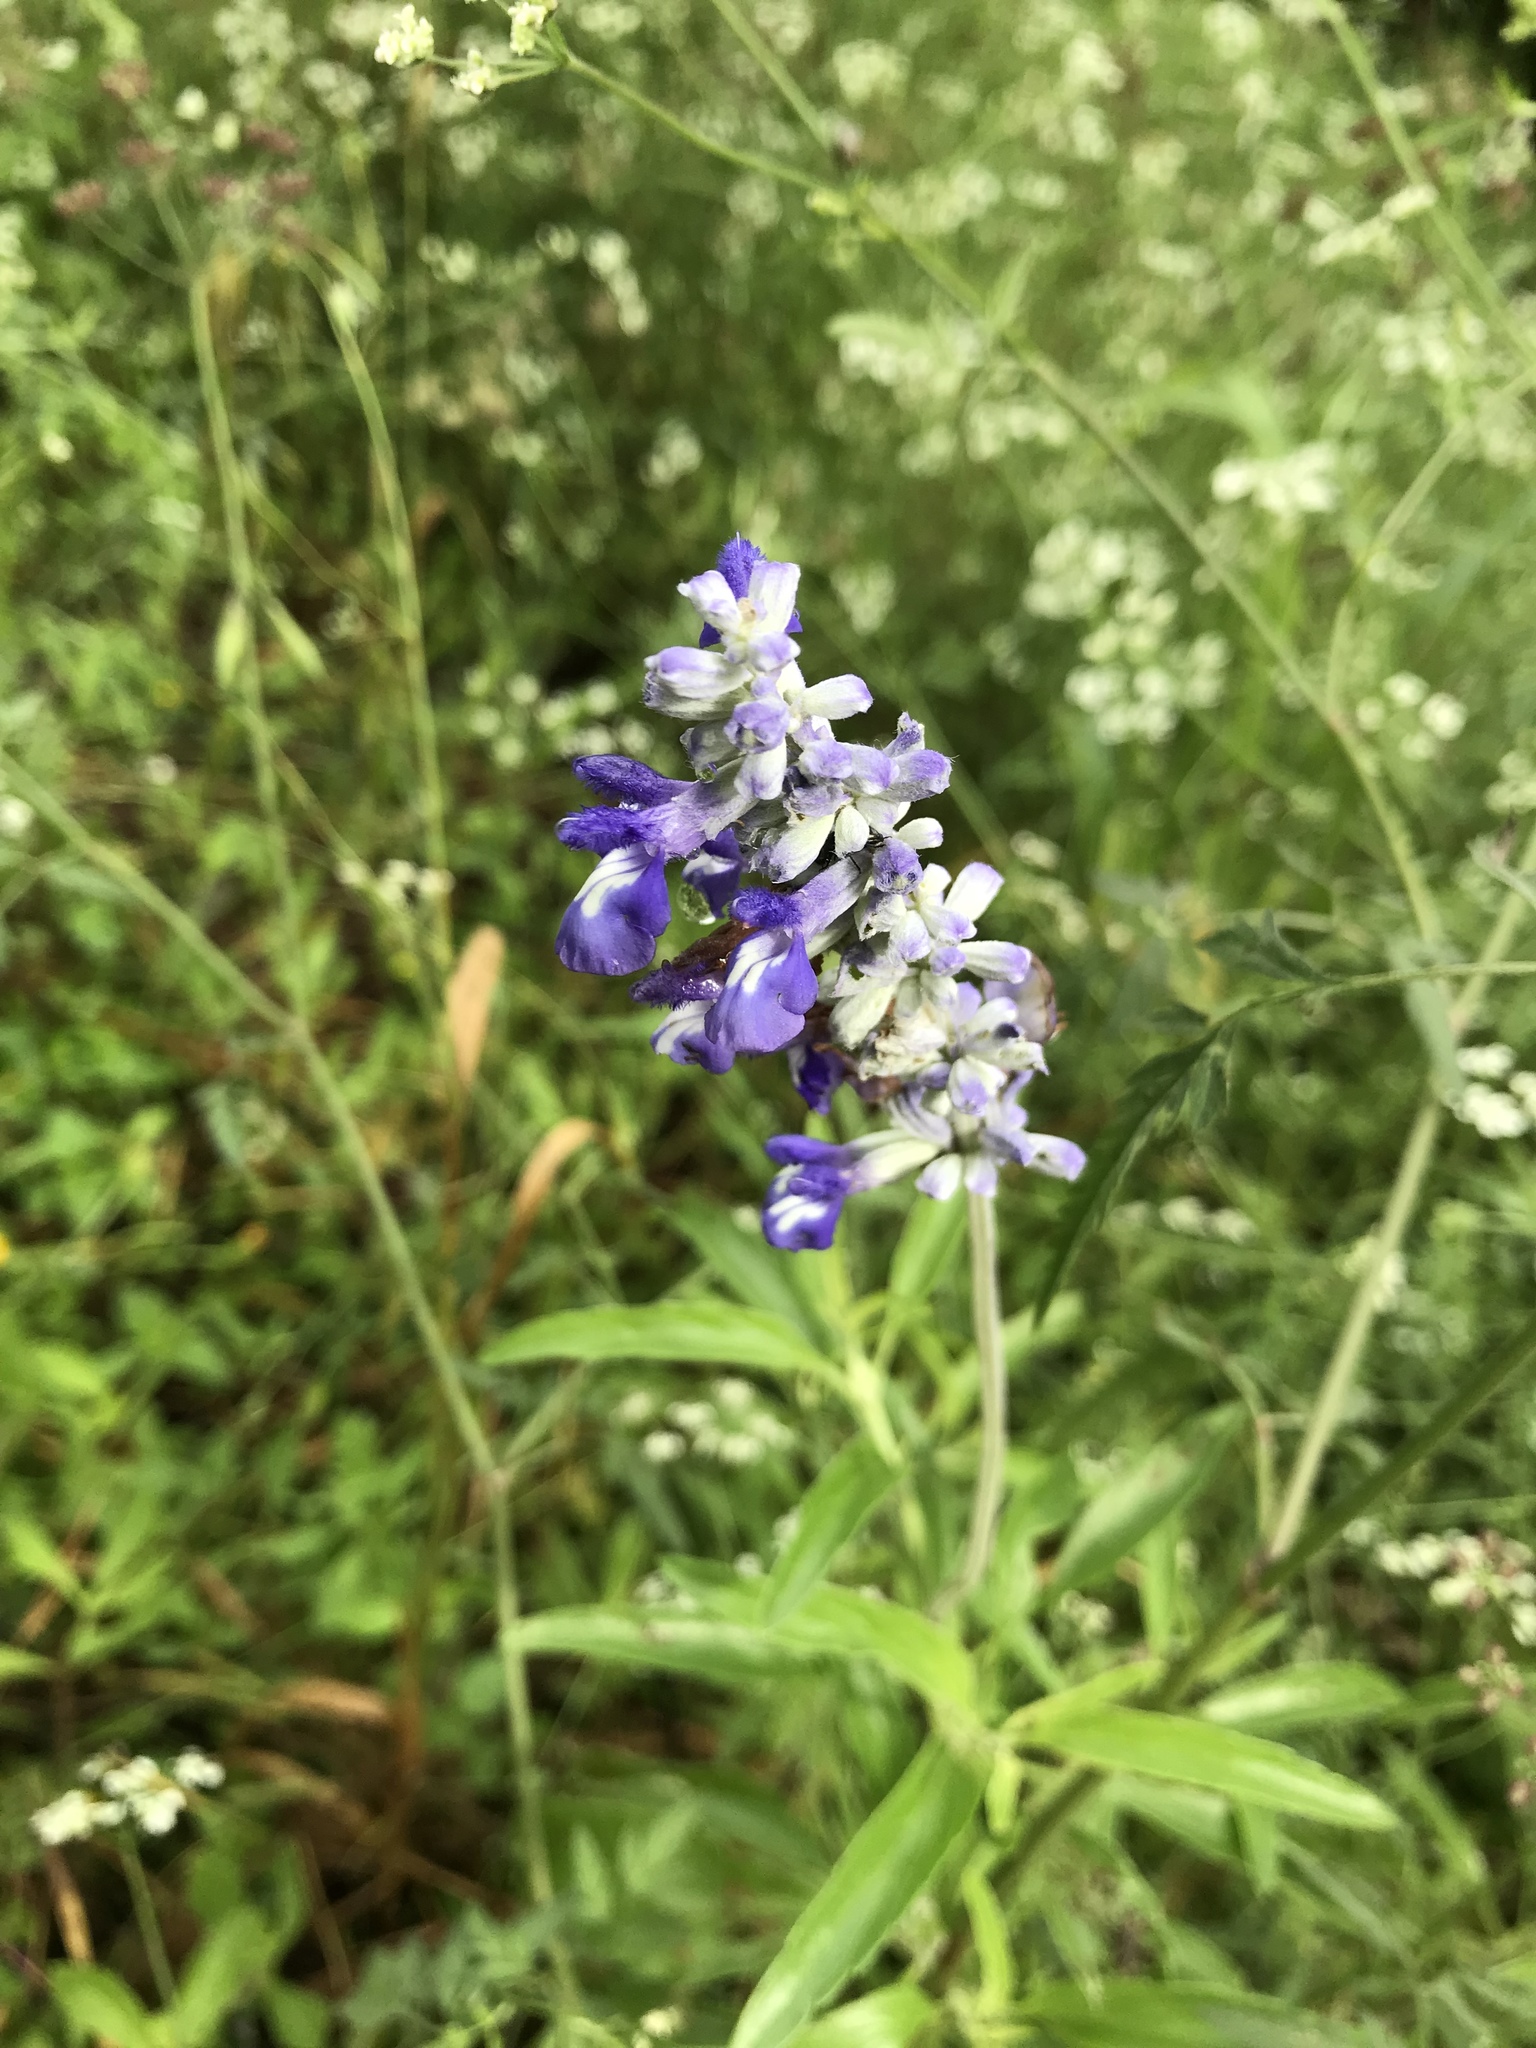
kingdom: Plantae
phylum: Tracheophyta
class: Magnoliopsida
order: Lamiales
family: Lamiaceae
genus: Salvia
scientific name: Salvia farinacea
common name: Mealy sage
